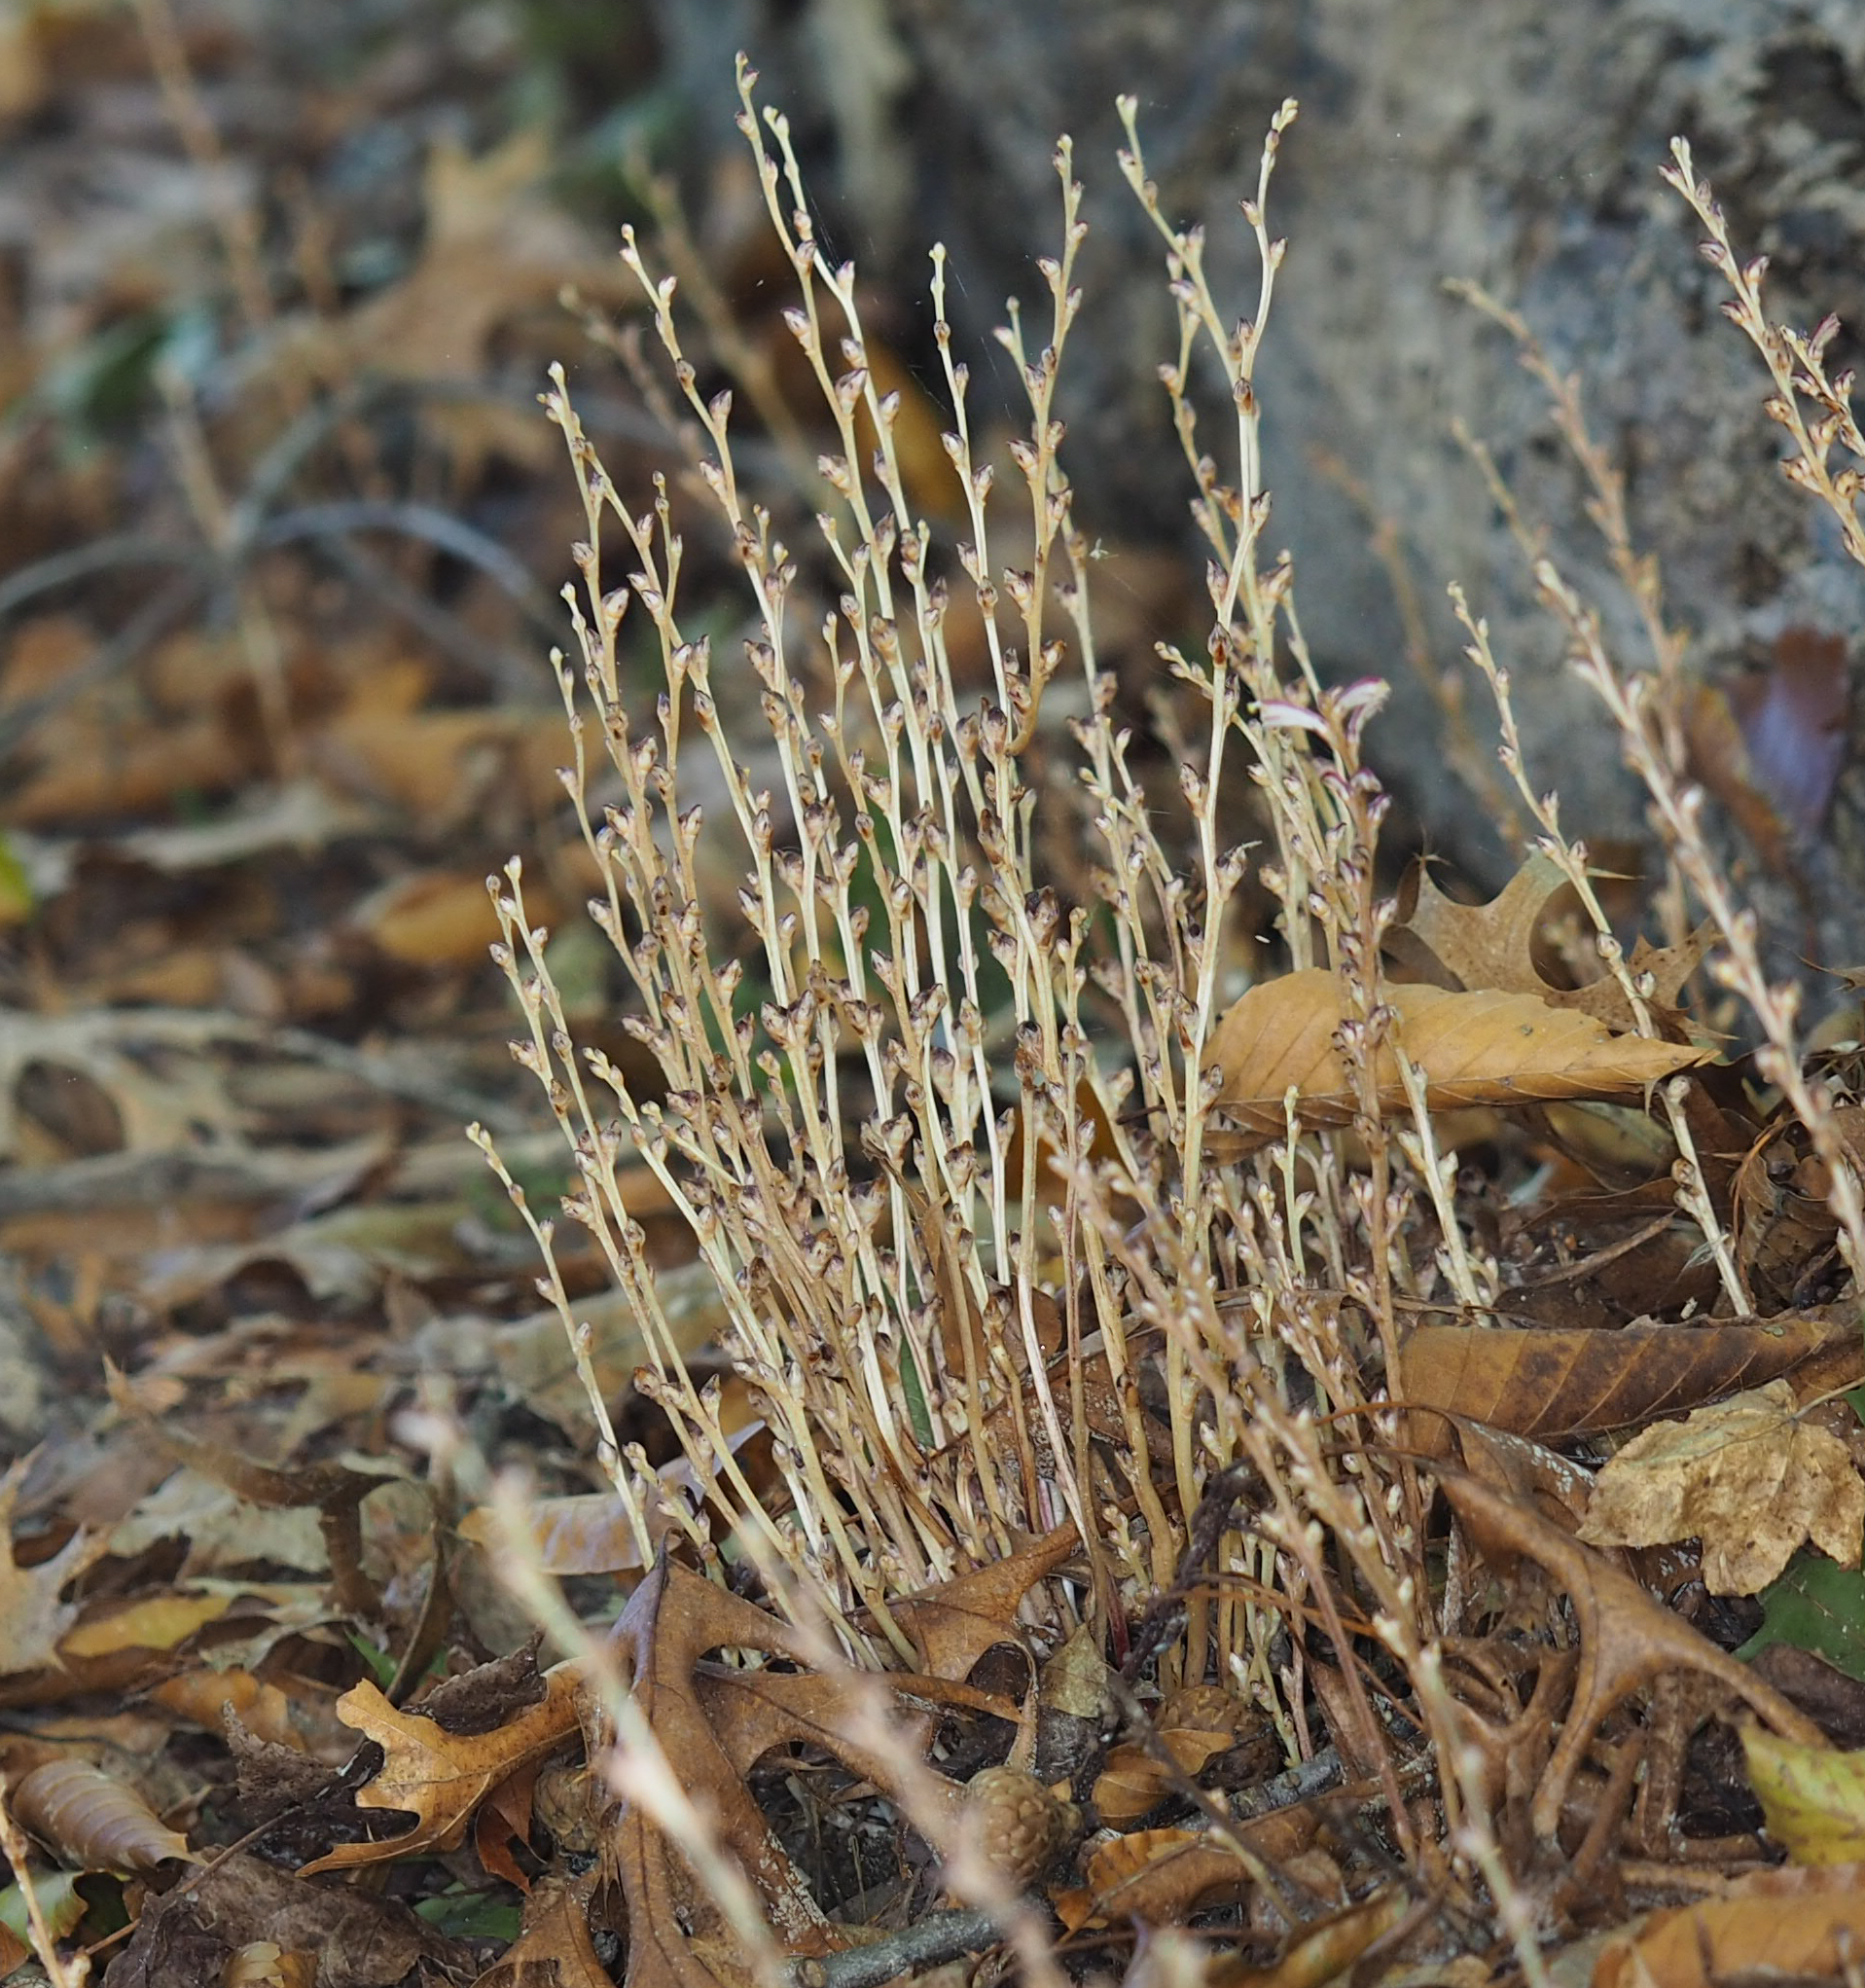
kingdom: Plantae
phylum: Tracheophyta
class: Magnoliopsida
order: Lamiales
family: Orobanchaceae
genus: Epifagus
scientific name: Epifagus virginiana
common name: Beechdrops
